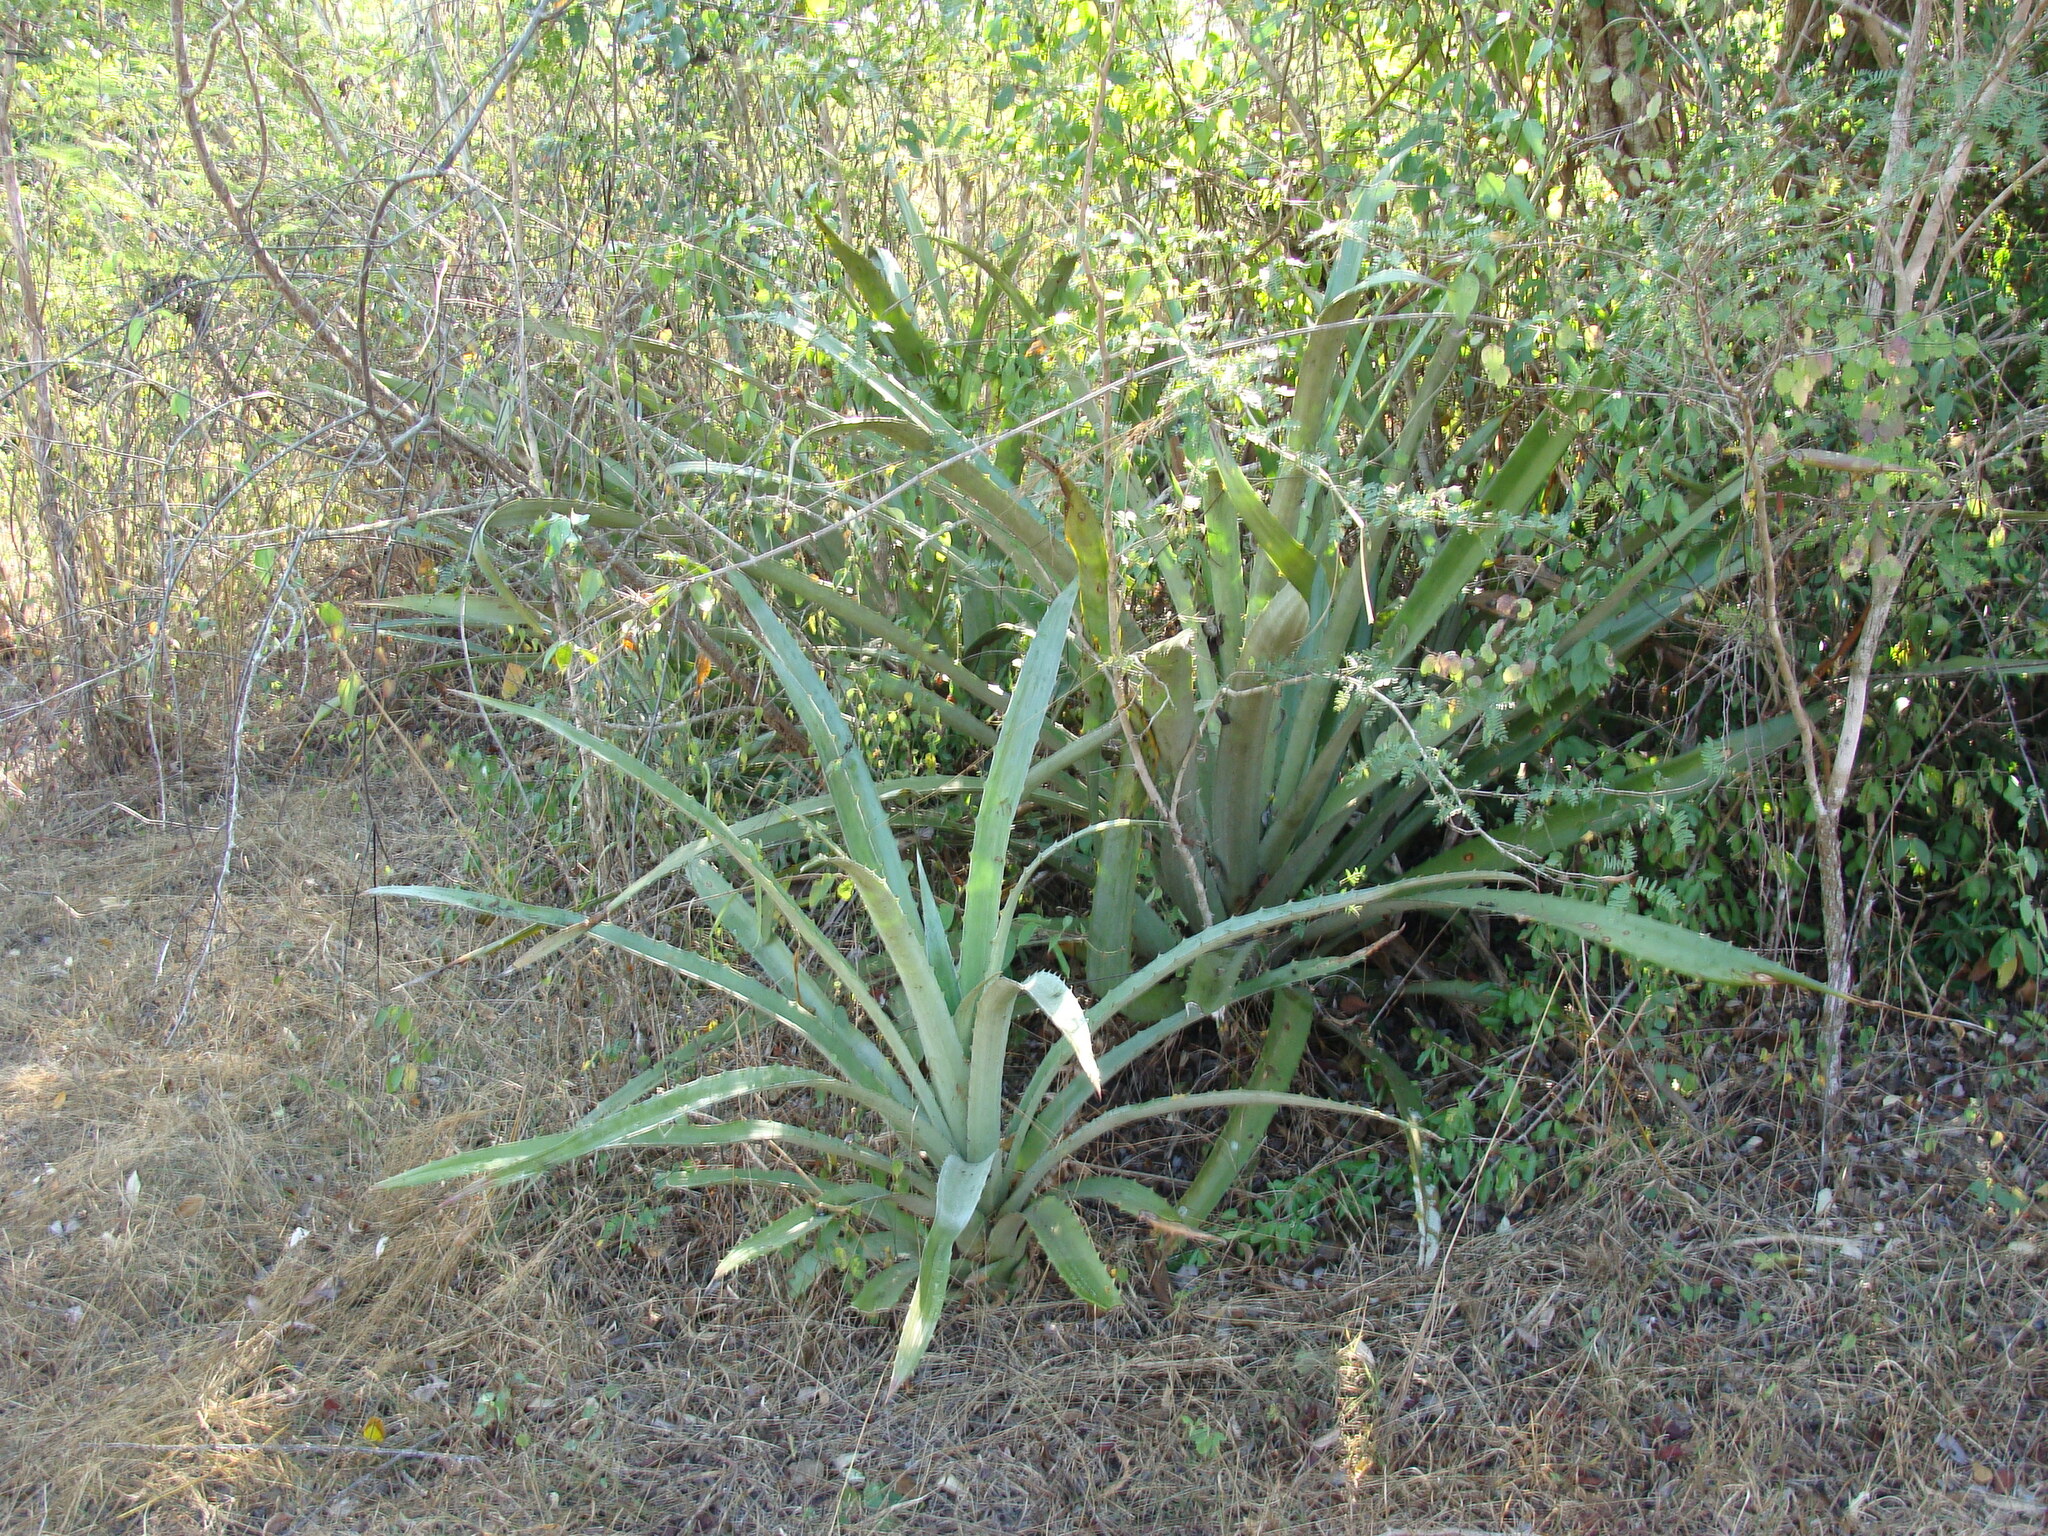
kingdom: Plantae
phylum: Tracheophyta
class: Liliopsida
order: Poales
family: Bromeliaceae
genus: Bromelia
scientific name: Bromelia pinguin
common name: Pinguin
